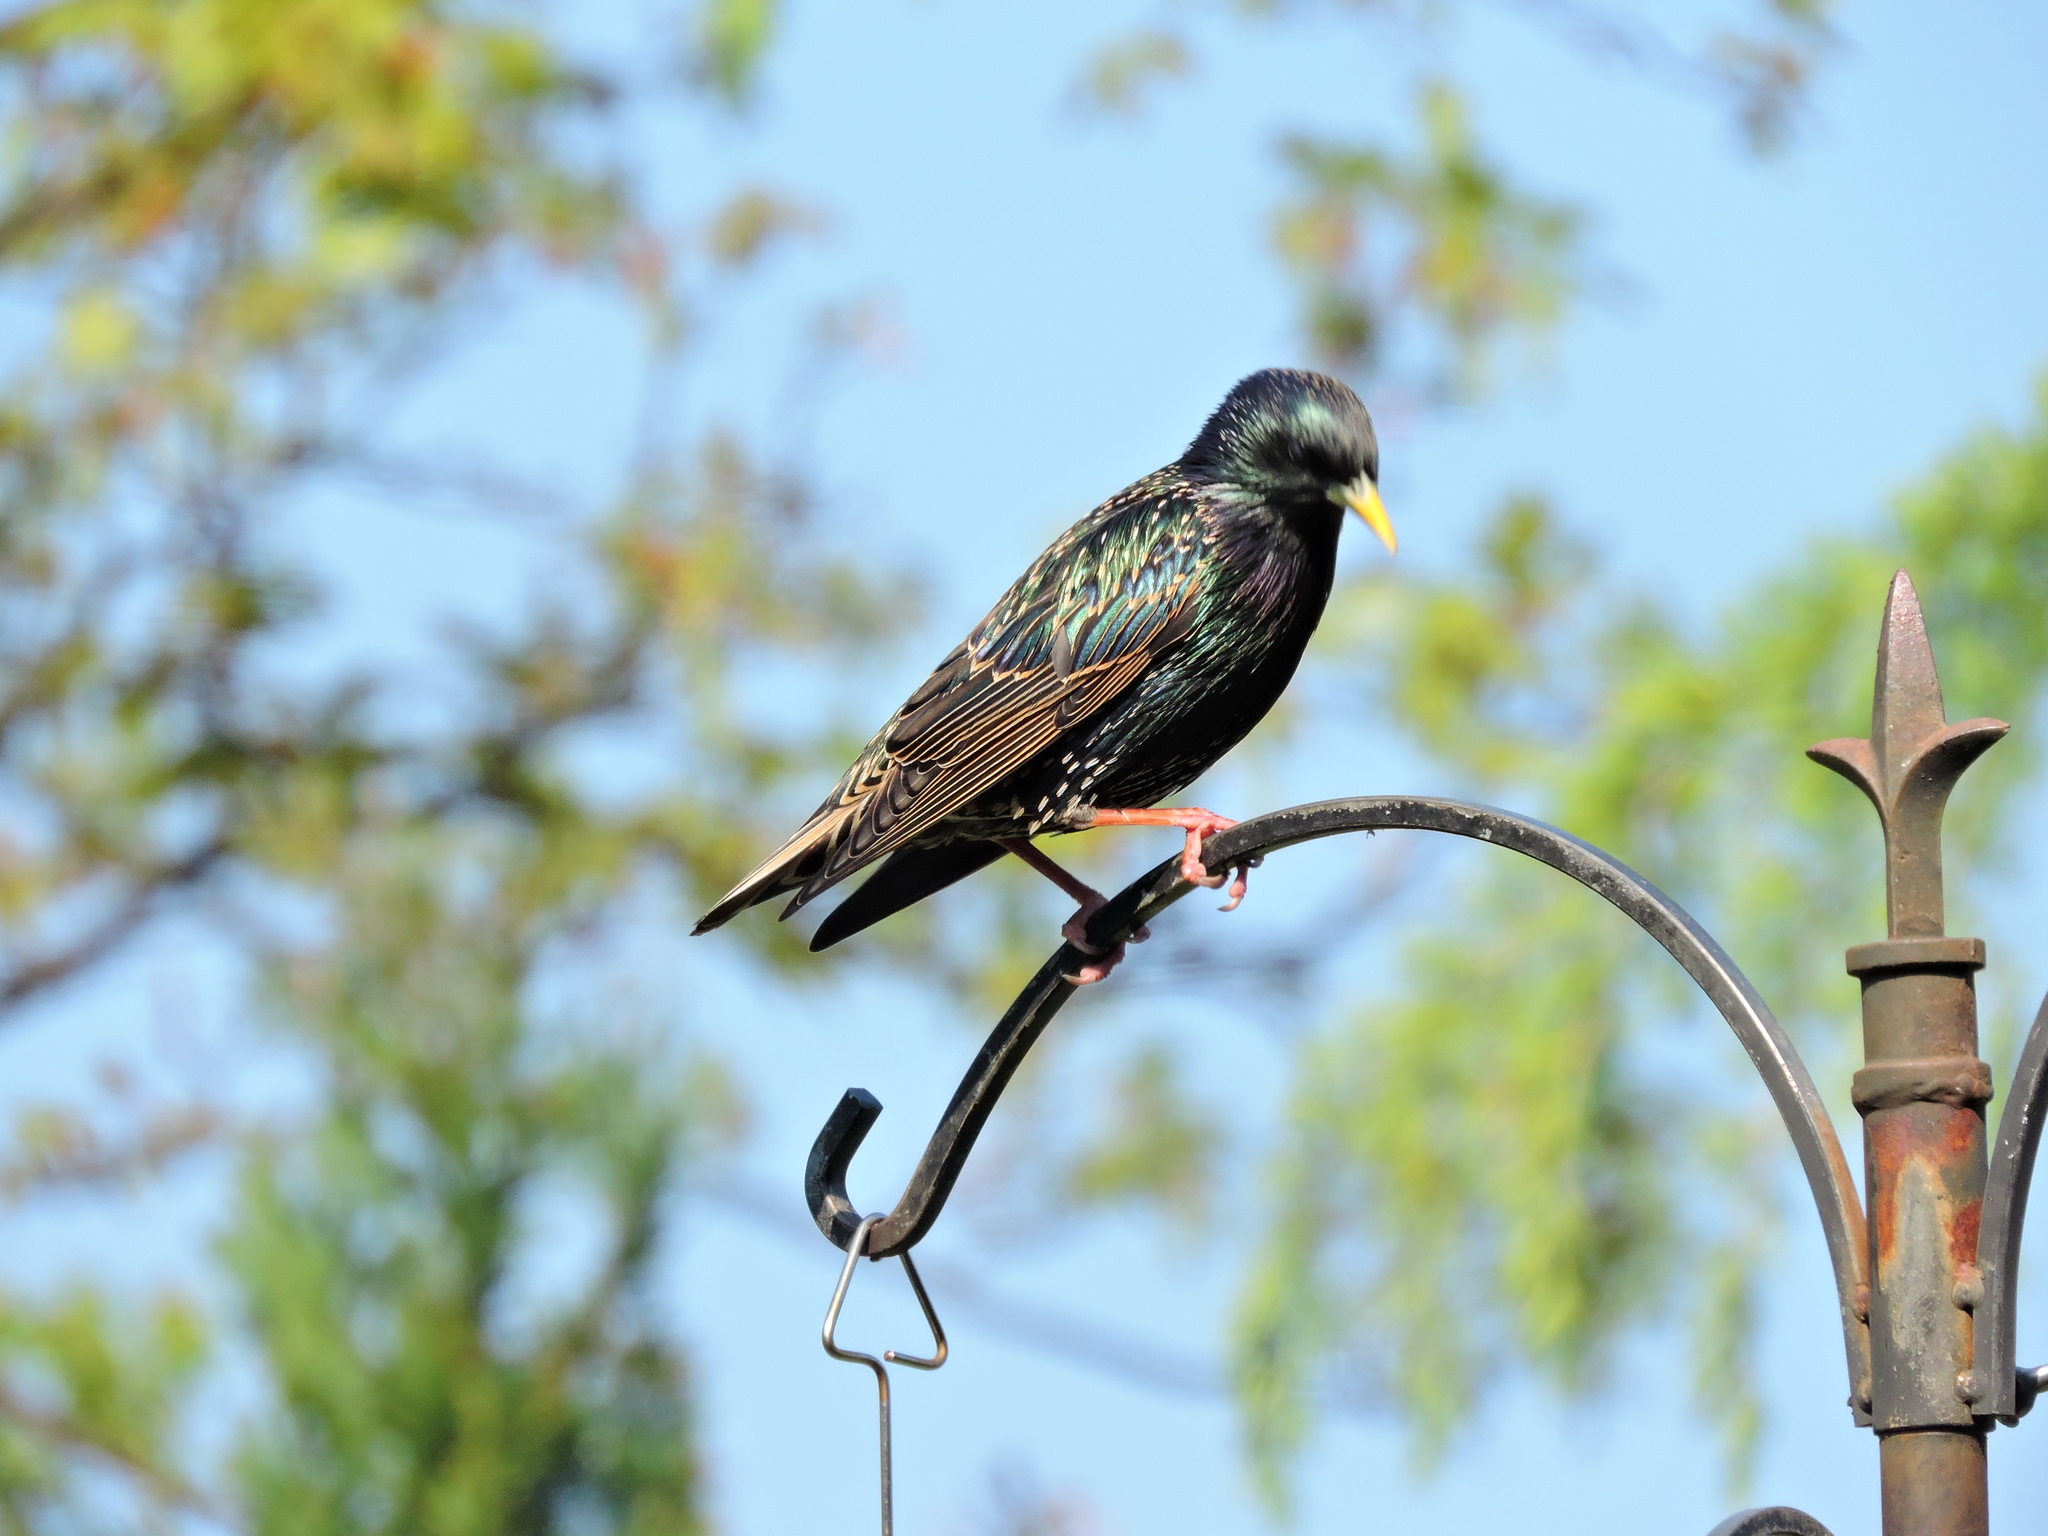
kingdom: Animalia
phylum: Chordata
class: Aves
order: Passeriformes
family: Sturnidae
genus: Sturnus
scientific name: Sturnus vulgaris
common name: Common starling
